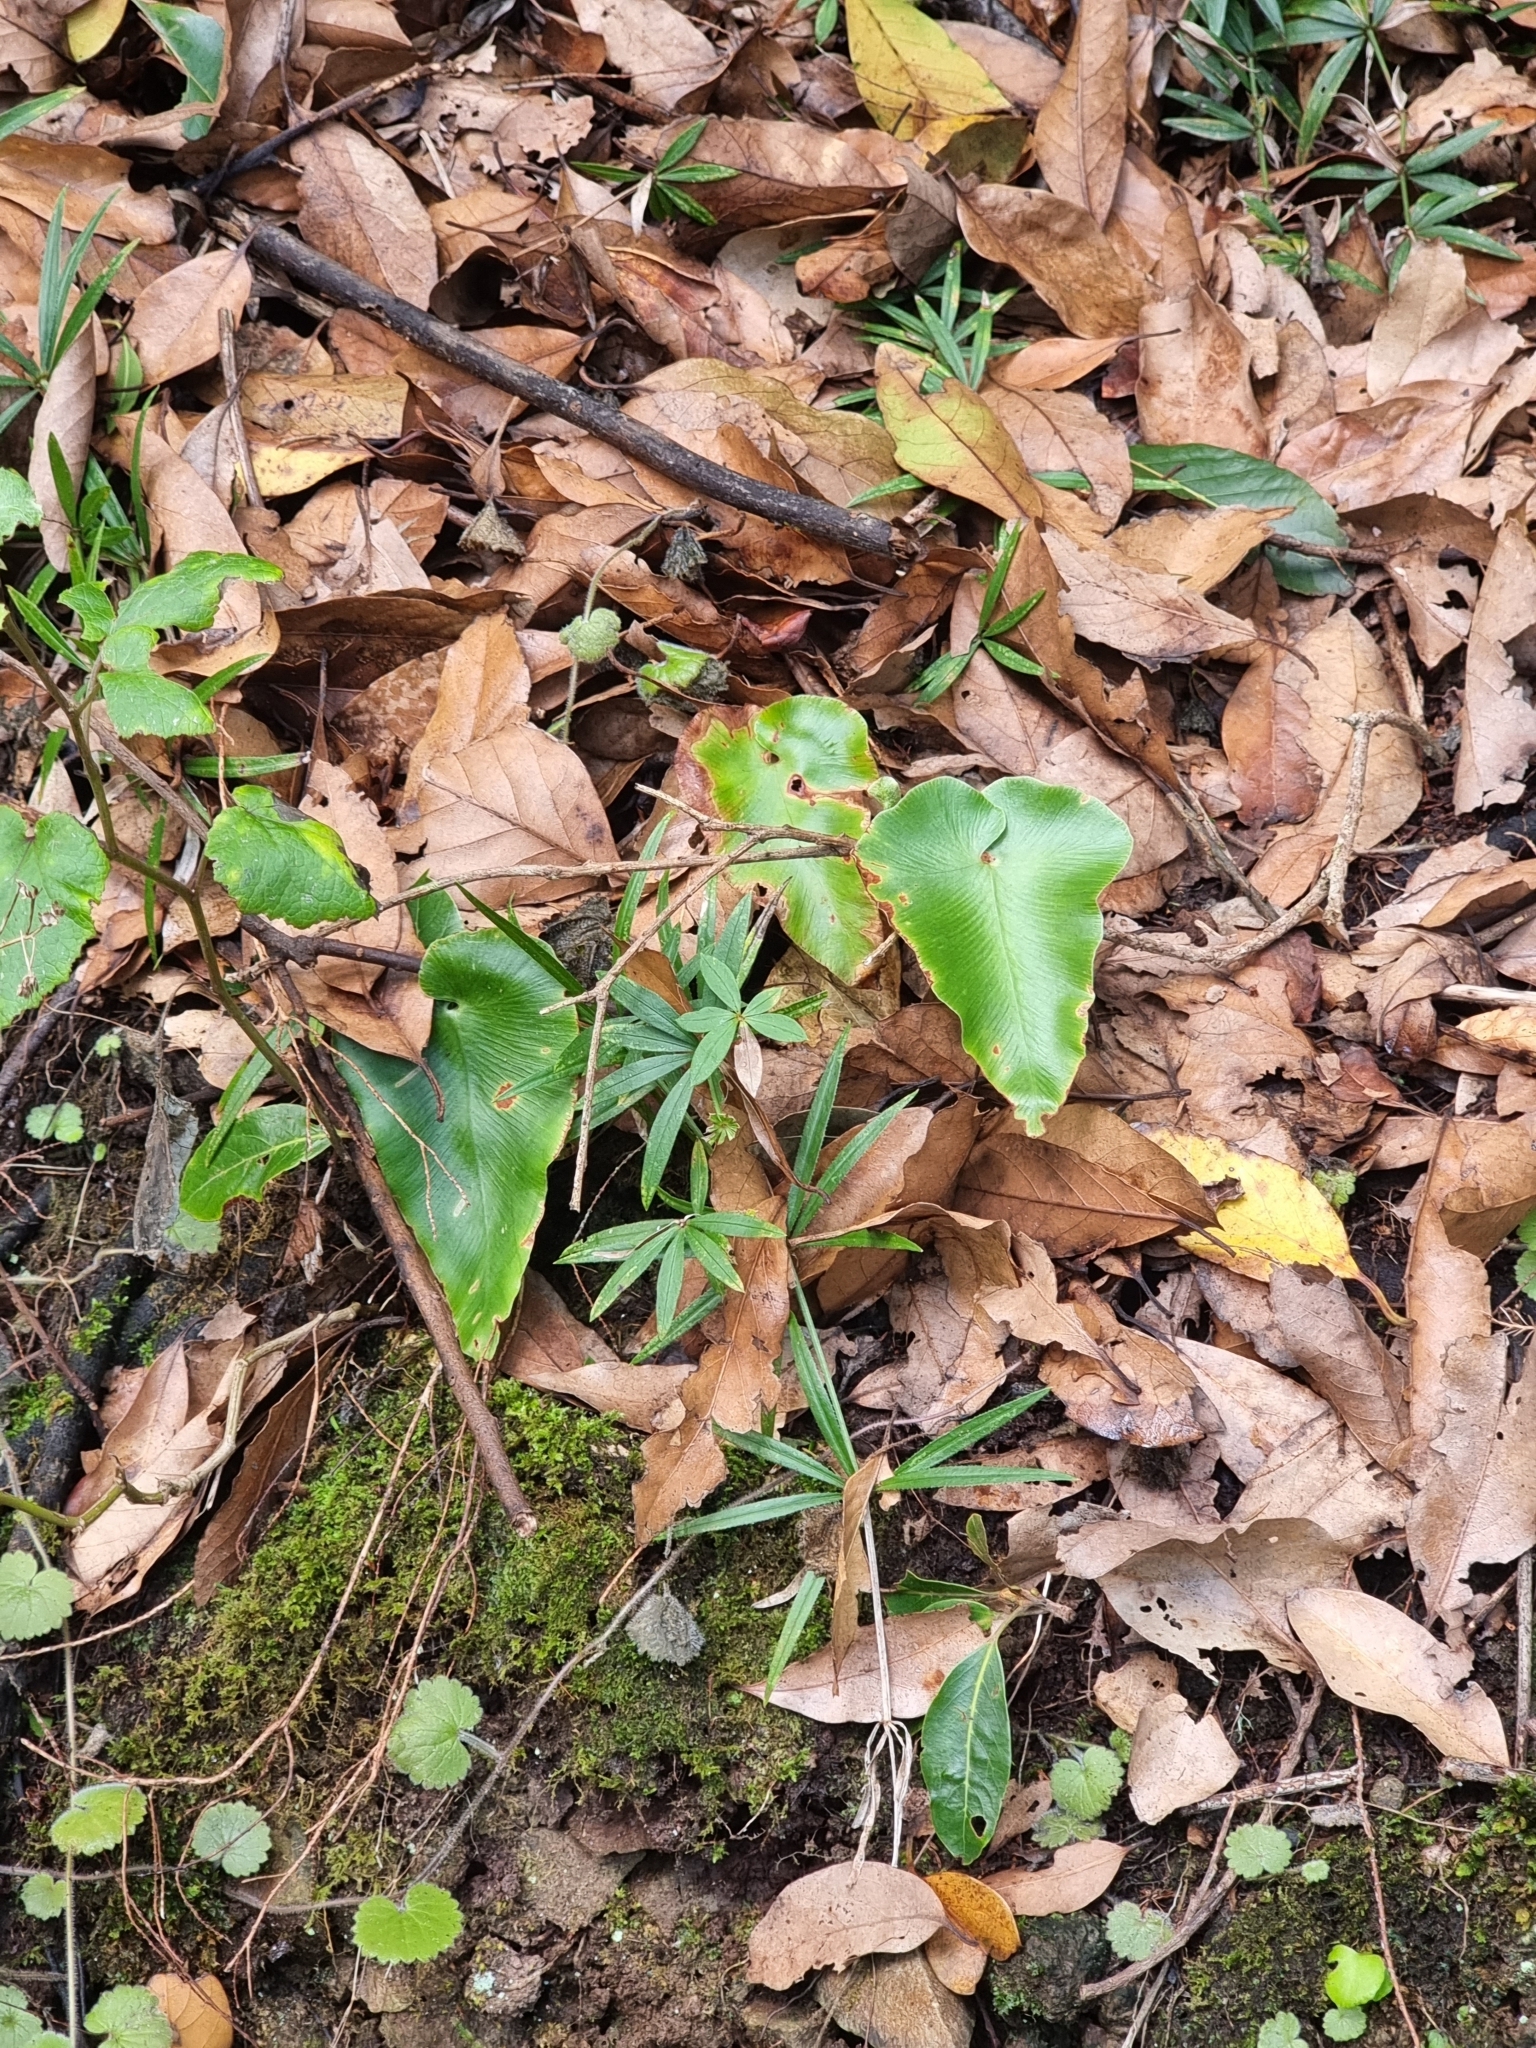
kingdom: Plantae
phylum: Tracheophyta
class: Polypodiopsida
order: Polypodiales
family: Aspleniaceae
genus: Asplenium
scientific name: Asplenium hemionitis
